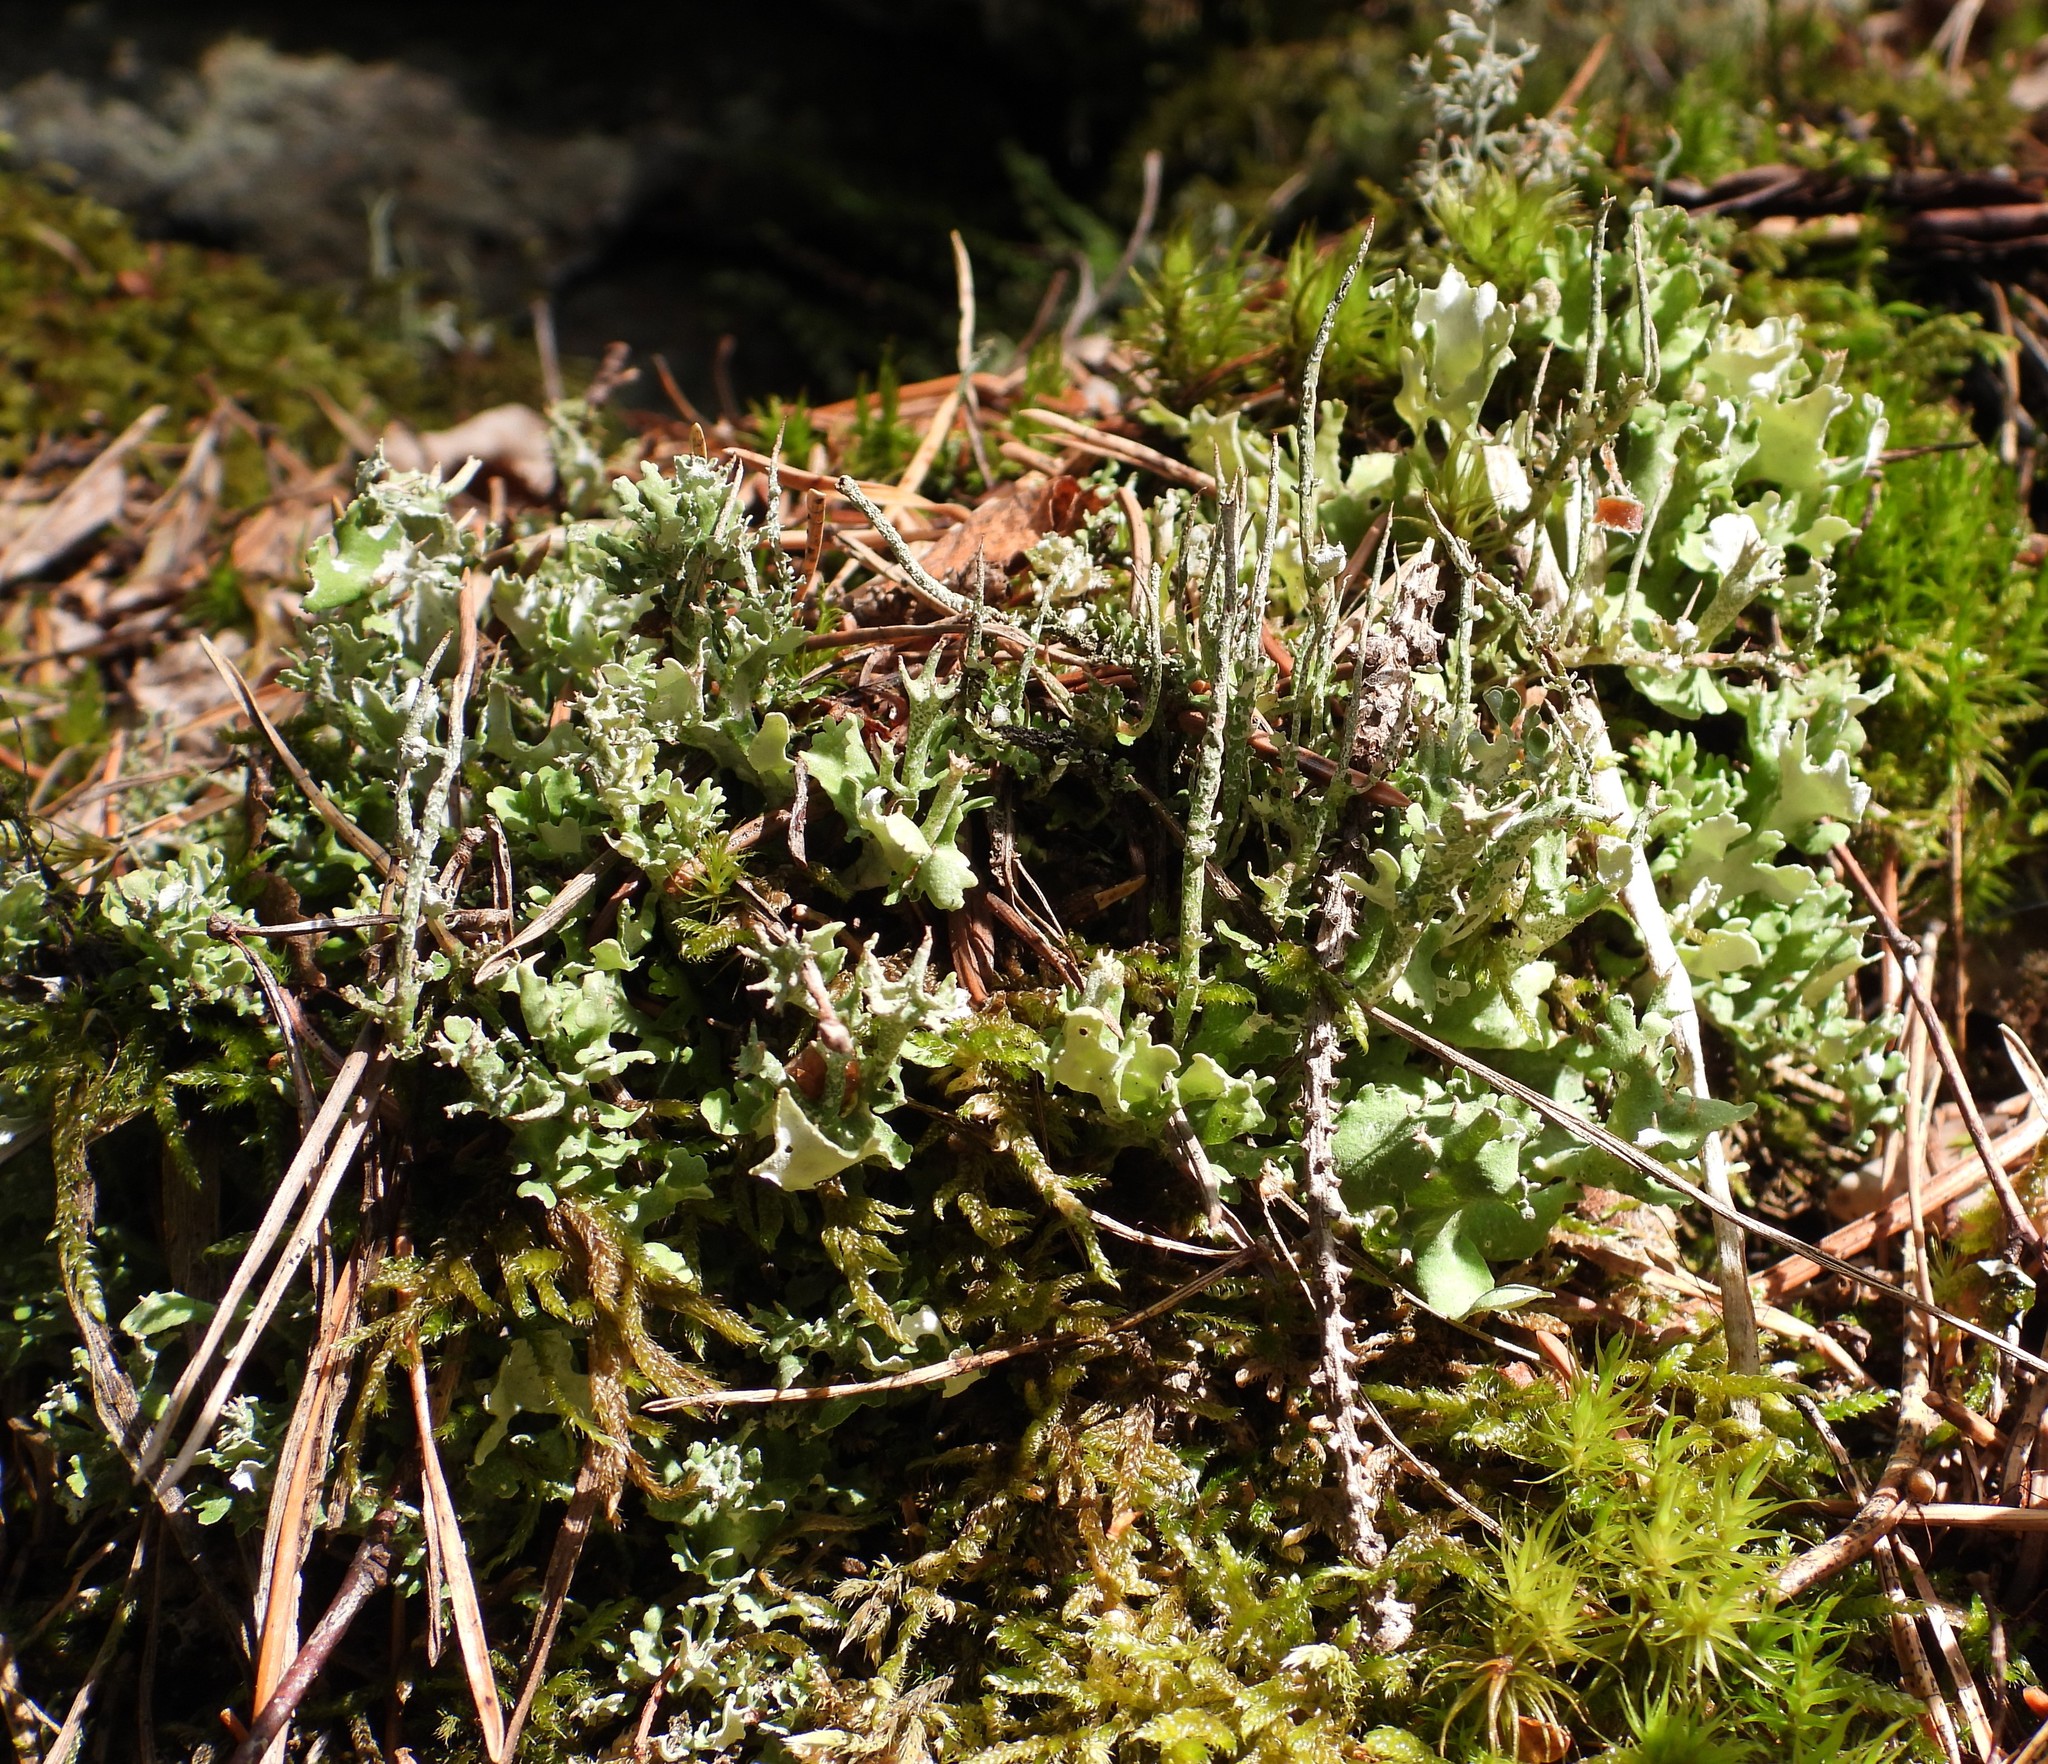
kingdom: Fungi
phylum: Ascomycota
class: Lecanoromycetes
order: Lecanorales
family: Cladoniaceae
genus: Cladonia
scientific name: Cladonia turgida
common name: Crazy scale lichen
